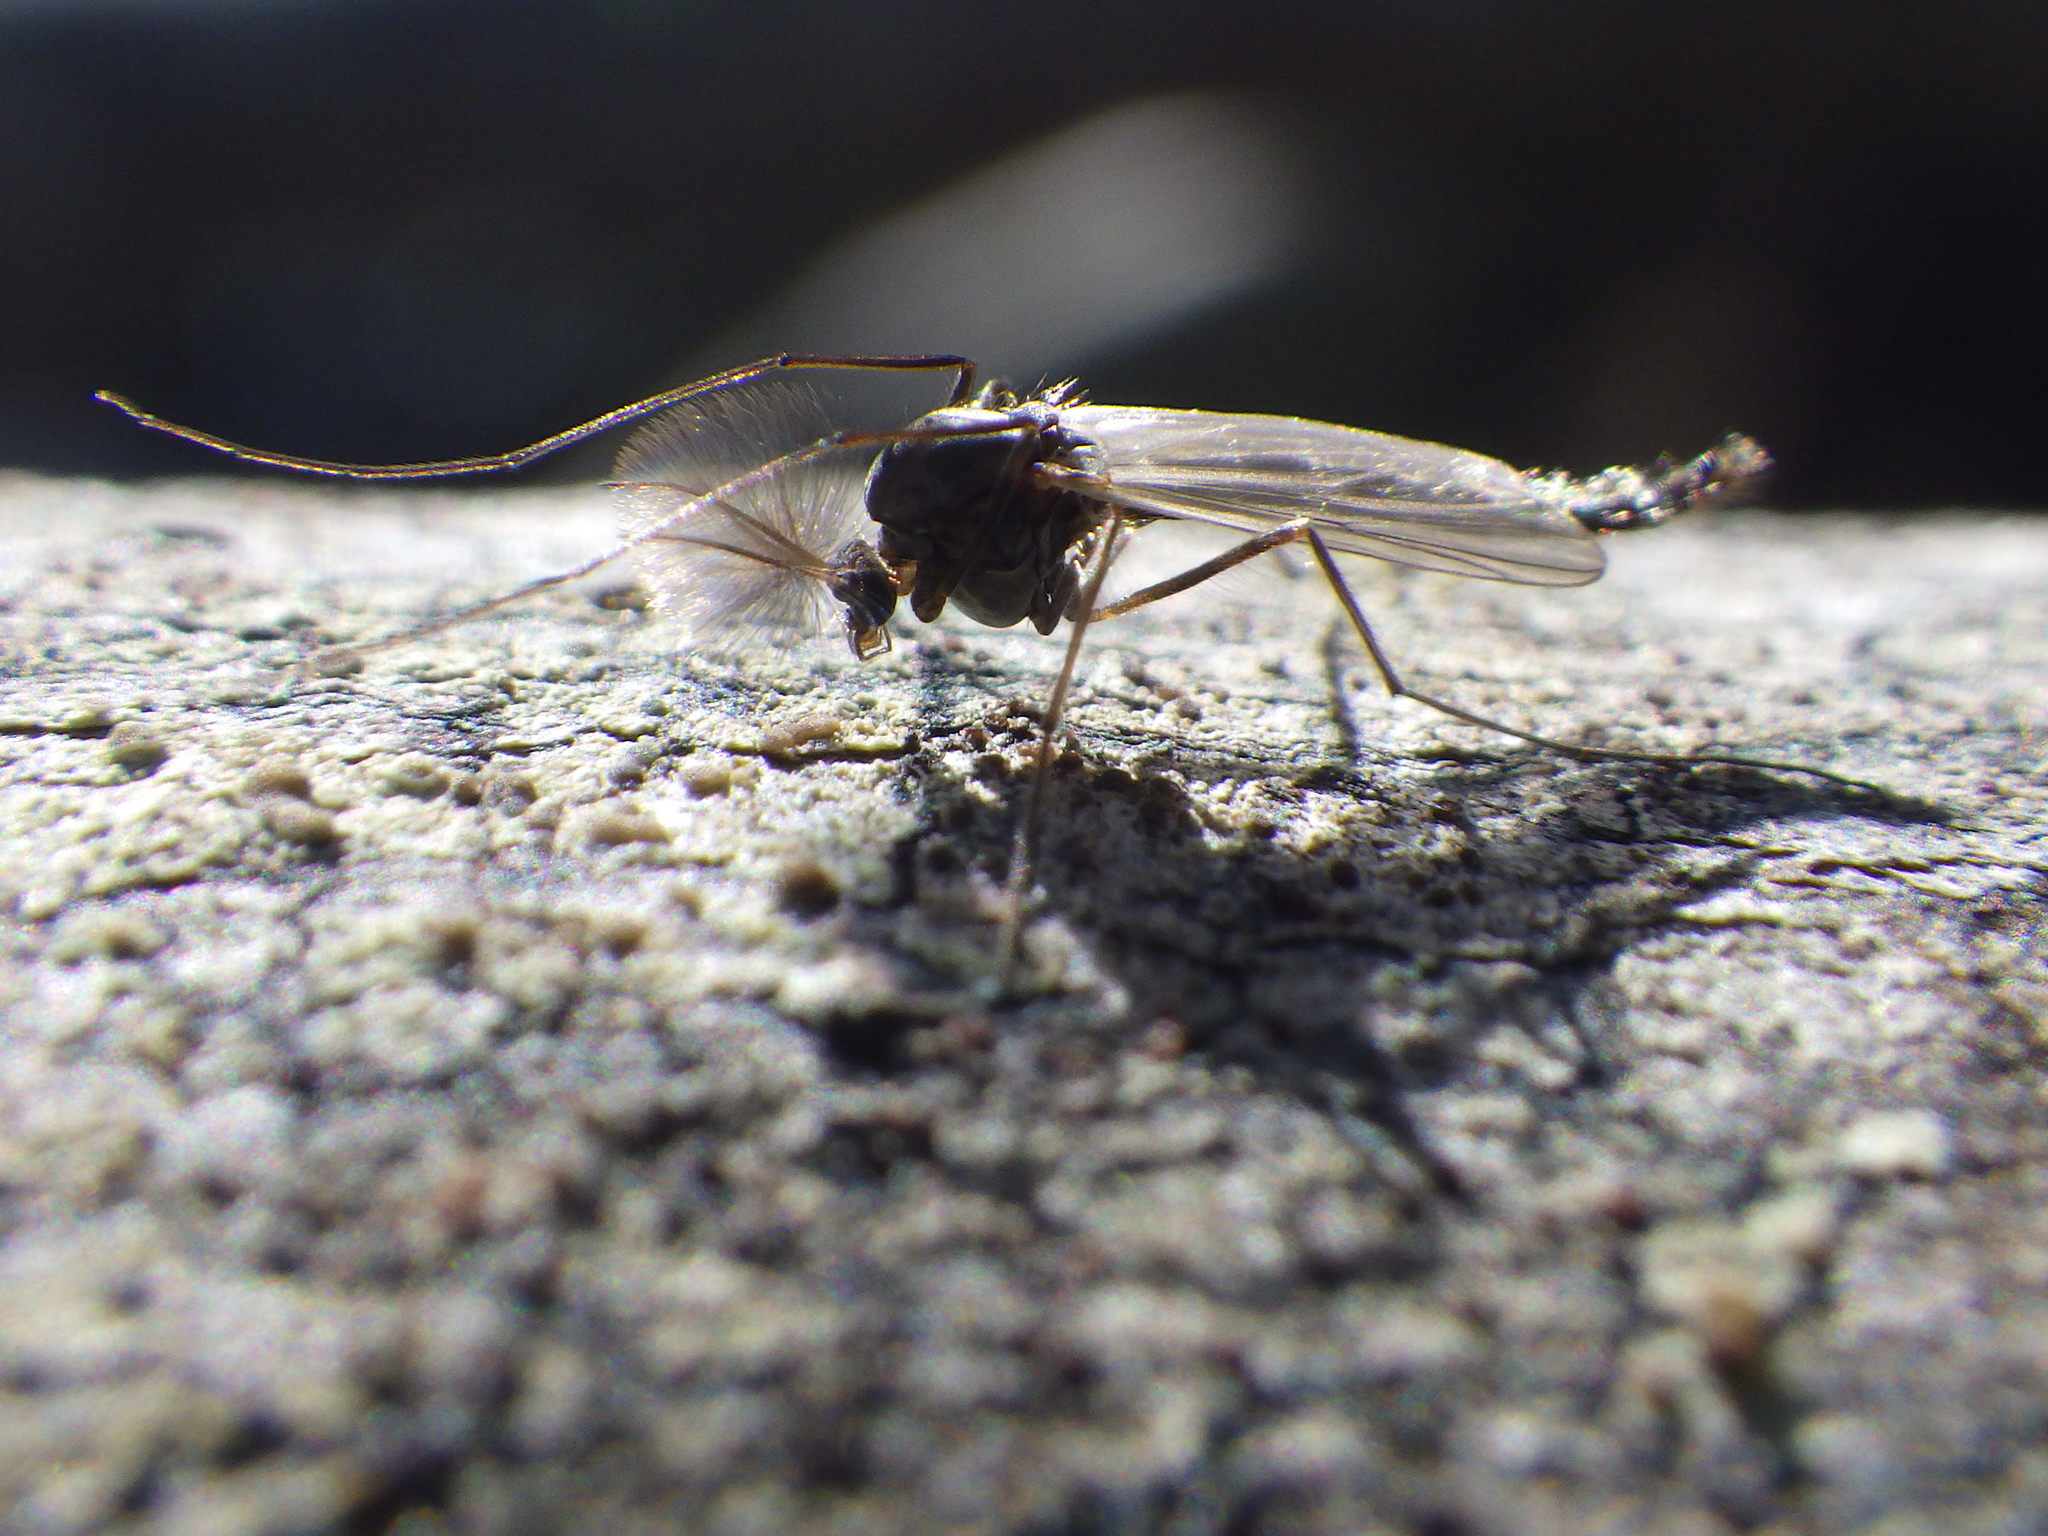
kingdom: Animalia
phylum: Arthropoda
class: Insecta
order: Diptera
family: Chironomidae
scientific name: Chironomidae
